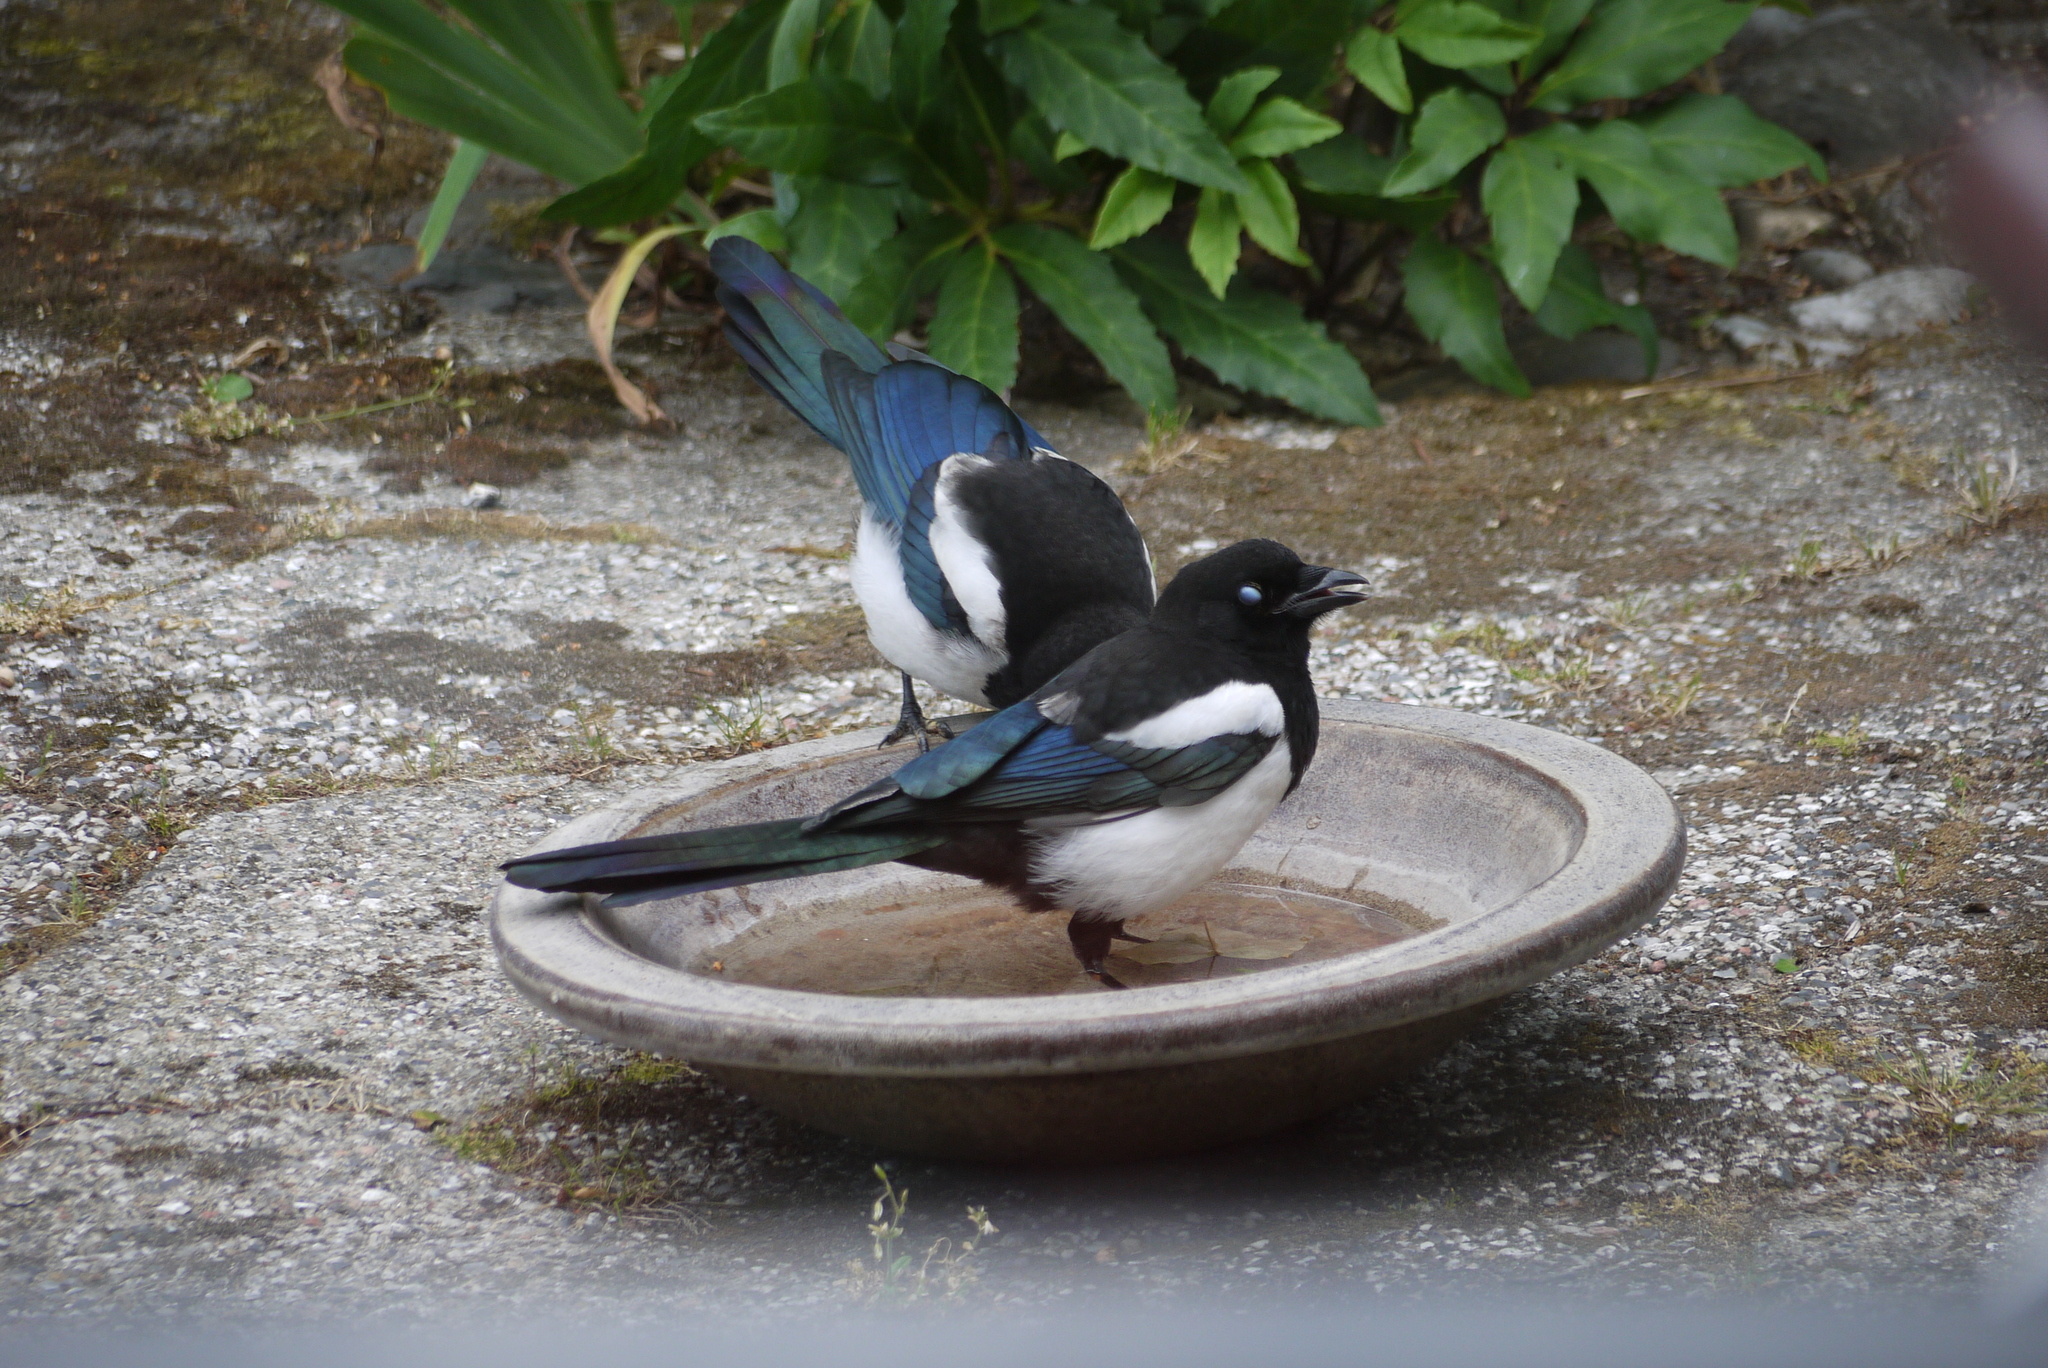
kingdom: Animalia
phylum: Chordata
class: Aves
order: Passeriformes
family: Corvidae
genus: Pica
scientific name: Pica pica
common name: Eurasian magpie
